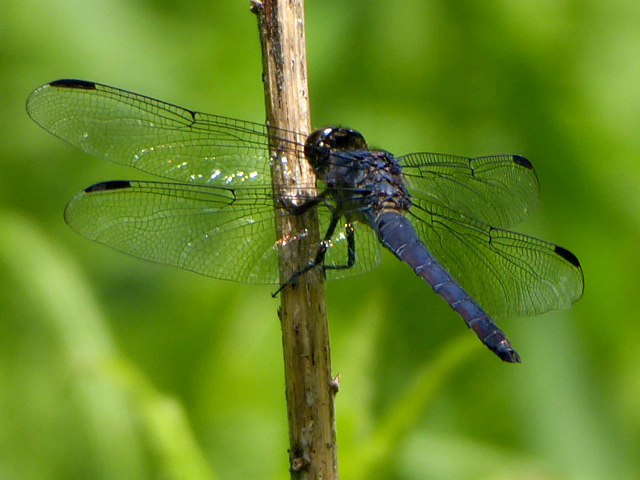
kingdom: Animalia
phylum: Arthropoda
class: Insecta
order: Odonata
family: Libellulidae
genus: Libellula
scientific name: Libellula incesta
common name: Slaty skimmer
